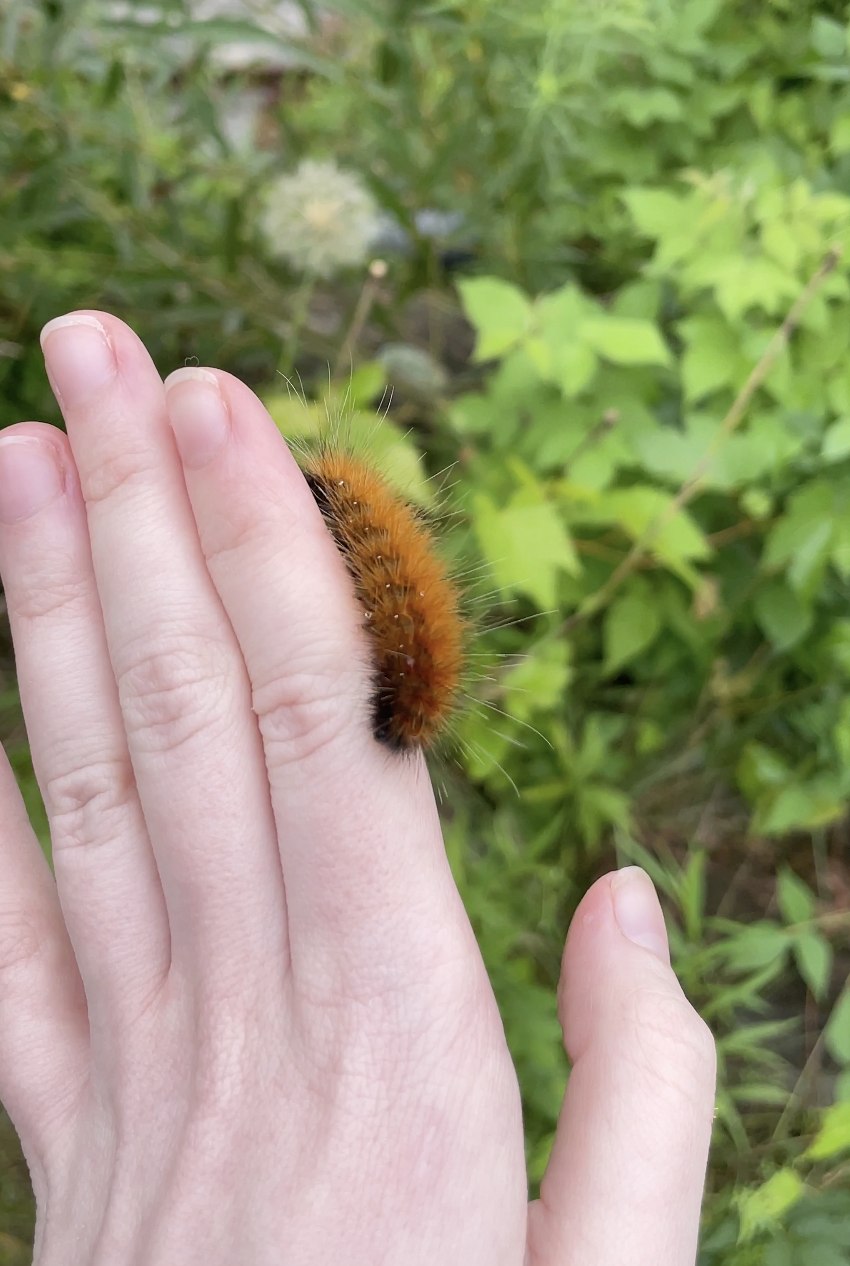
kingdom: Animalia
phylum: Arthropoda
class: Insecta
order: Lepidoptera
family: Erebidae
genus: Spilosoma
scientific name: Spilosoma virginica
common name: Virginia tiger moth
